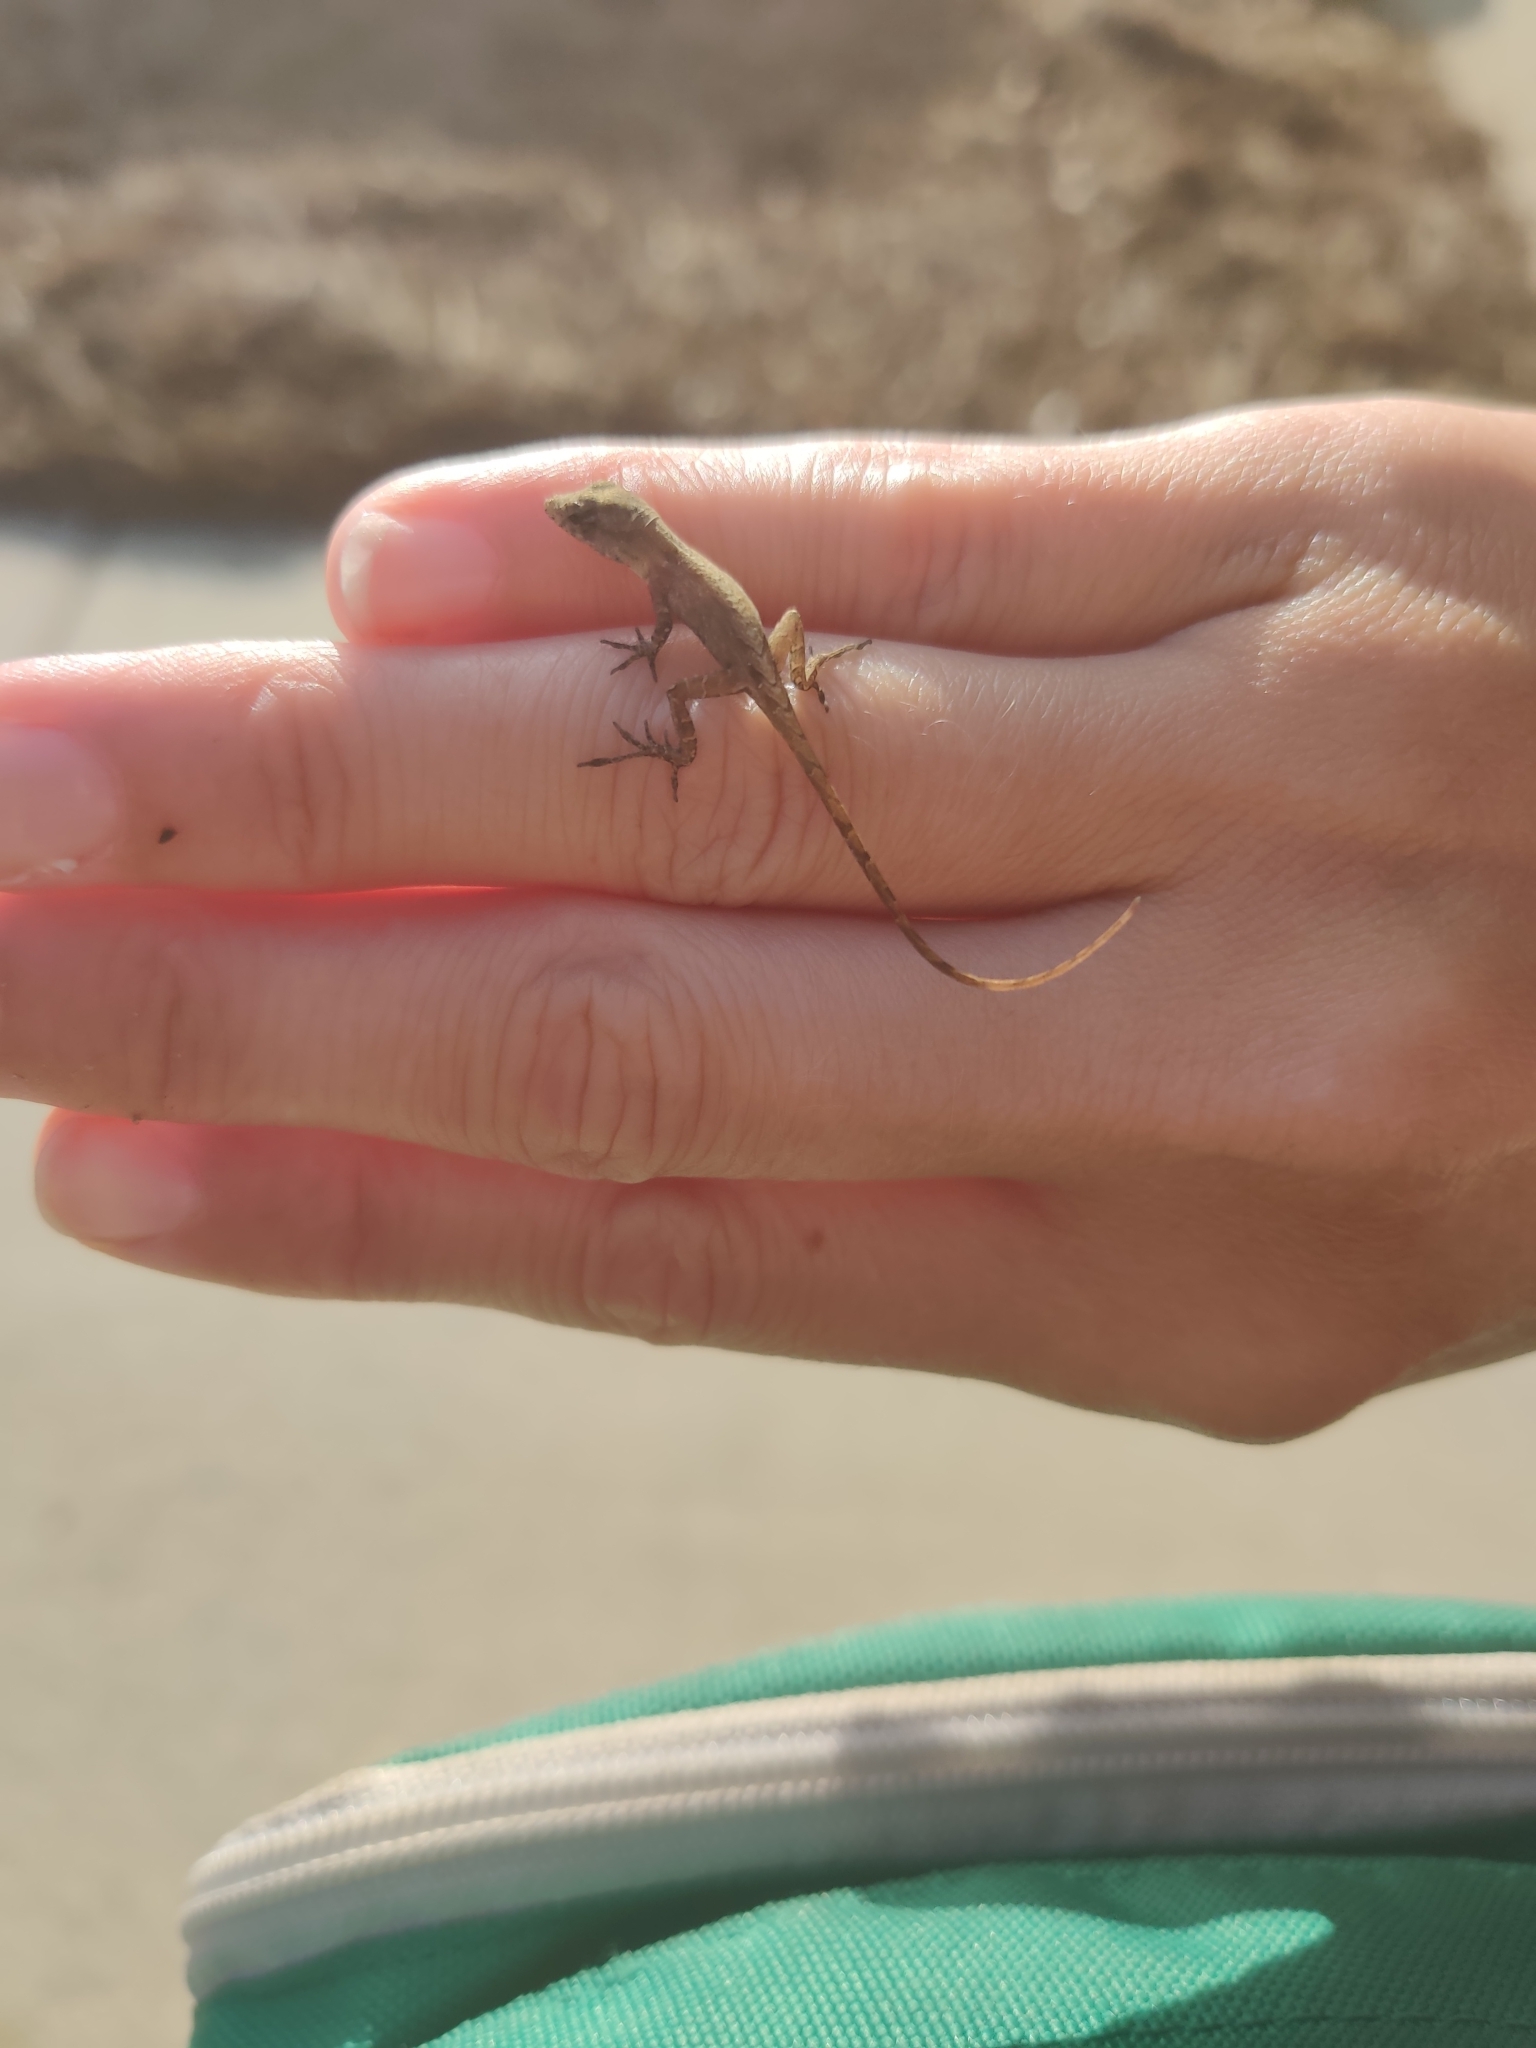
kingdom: Animalia
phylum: Chordata
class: Squamata
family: Dactyloidae
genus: Anolis
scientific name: Anolis sagrei
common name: Brown anole
